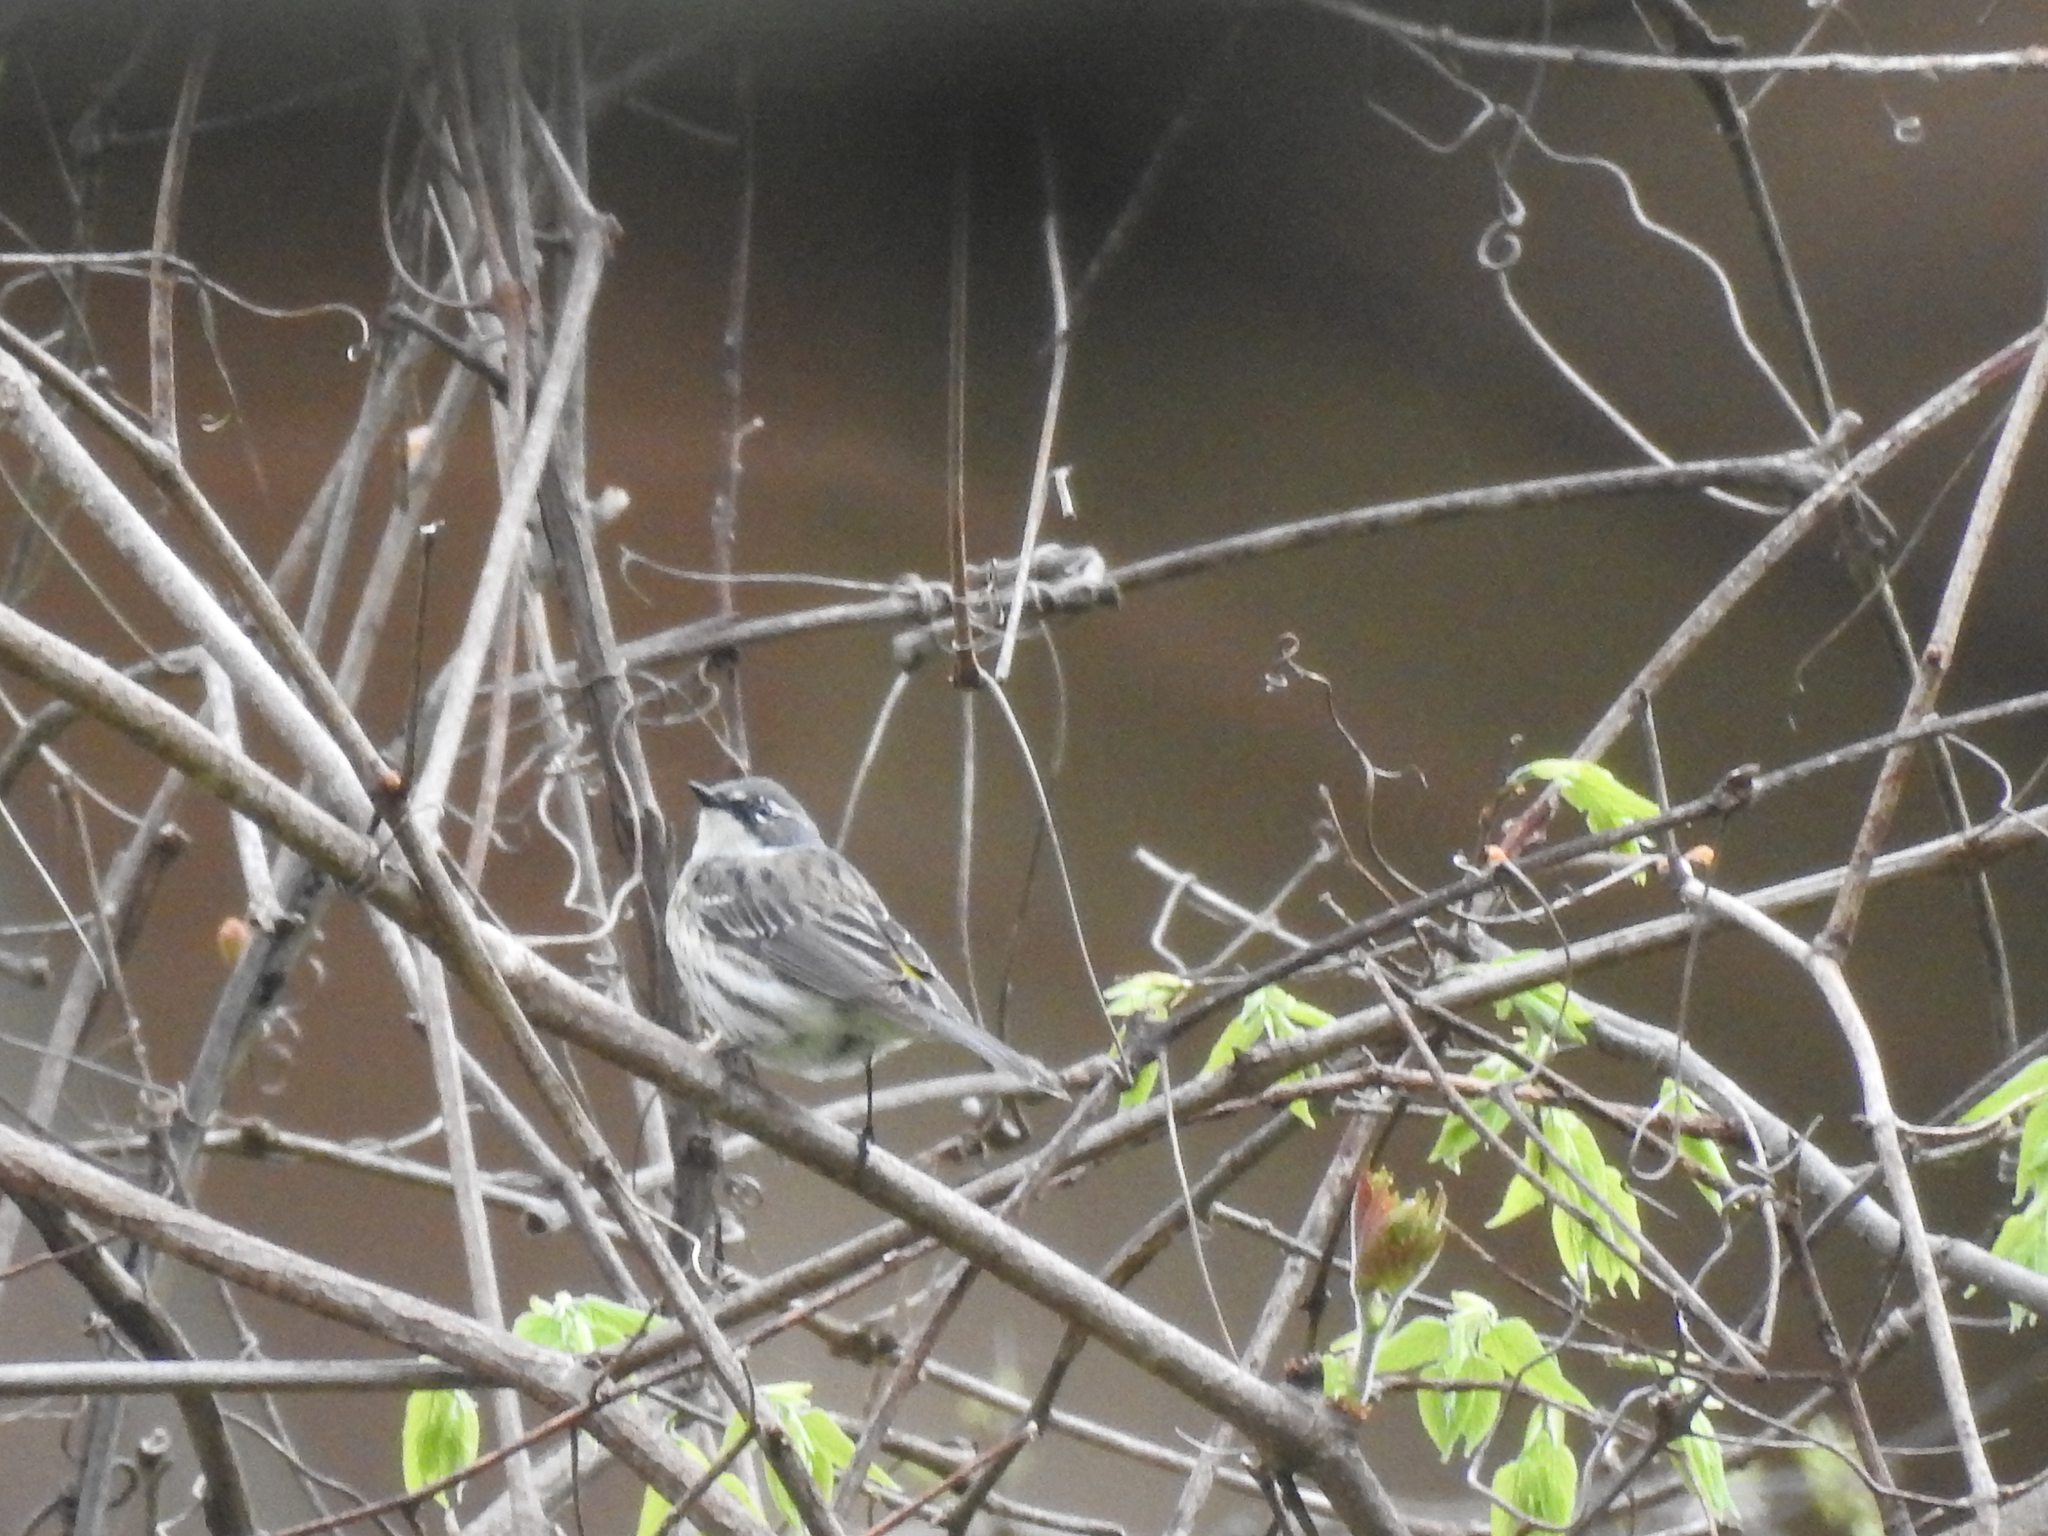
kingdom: Animalia
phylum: Chordata
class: Aves
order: Passeriformes
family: Parulidae
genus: Setophaga
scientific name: Setophaga coronata
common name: Myrtle warbler
